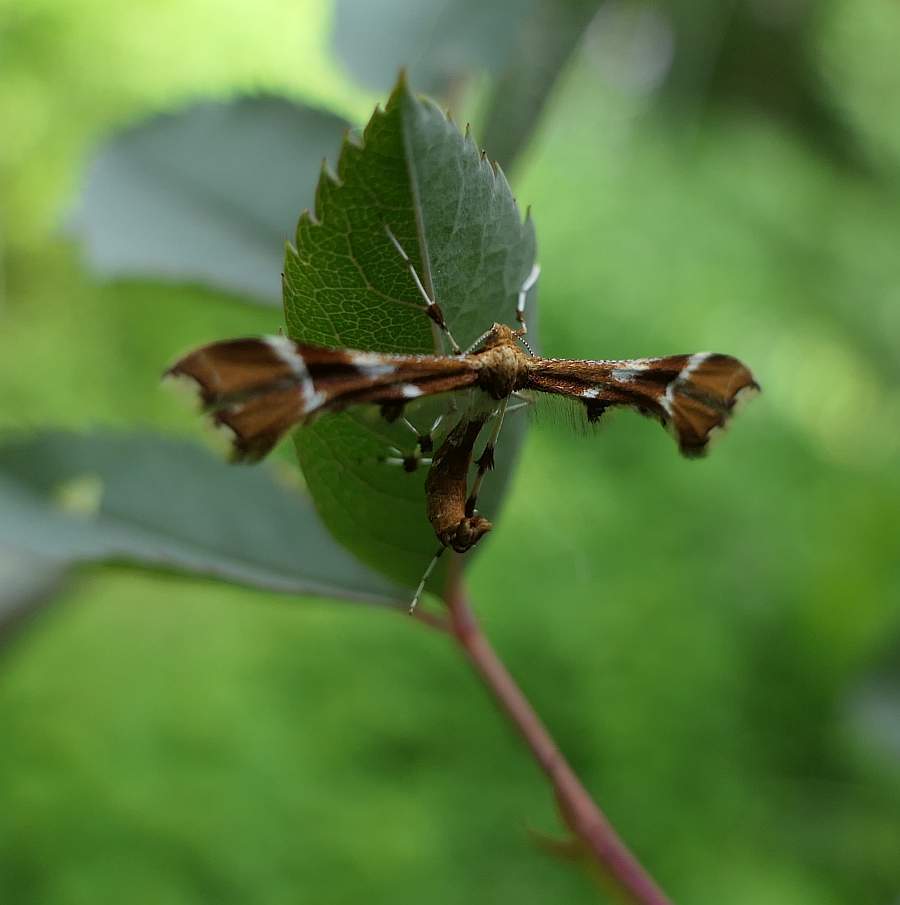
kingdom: Animalia
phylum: Arthropoda
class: Insecta
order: Lepidoptera
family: Pterophoridae
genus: Cnaemidophorus
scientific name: Cnaemidophorus rhododactyla
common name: Rose plume
